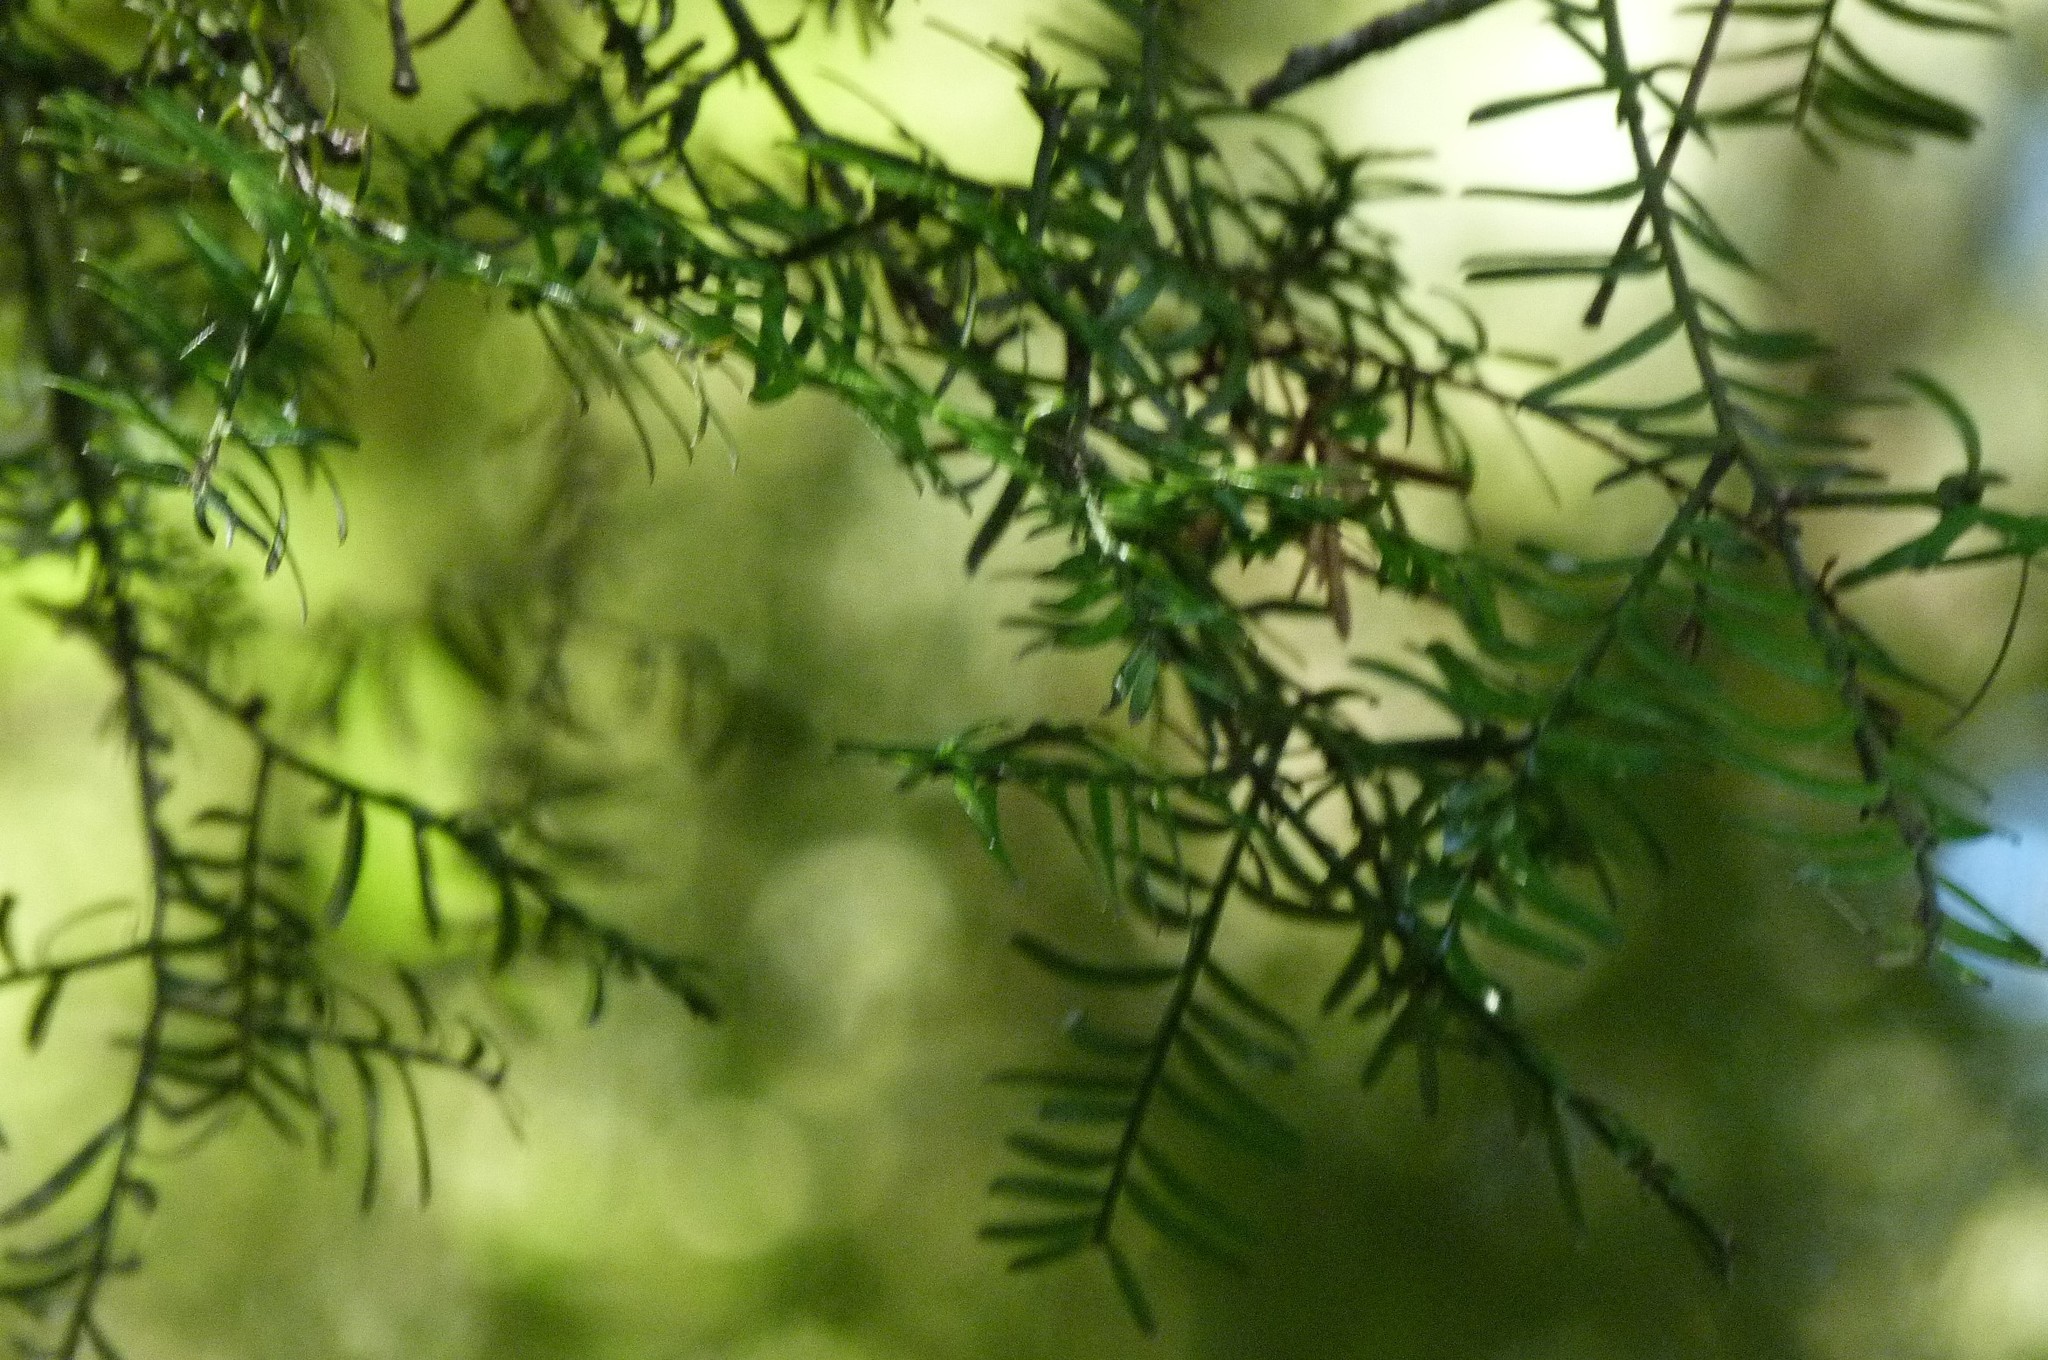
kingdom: Plantae
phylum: Tracheophyta
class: Pinopsida
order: Pinales
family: Podocarpaceae
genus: Prumnopitys
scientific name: Prumnopitys taxifolia
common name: Matai
